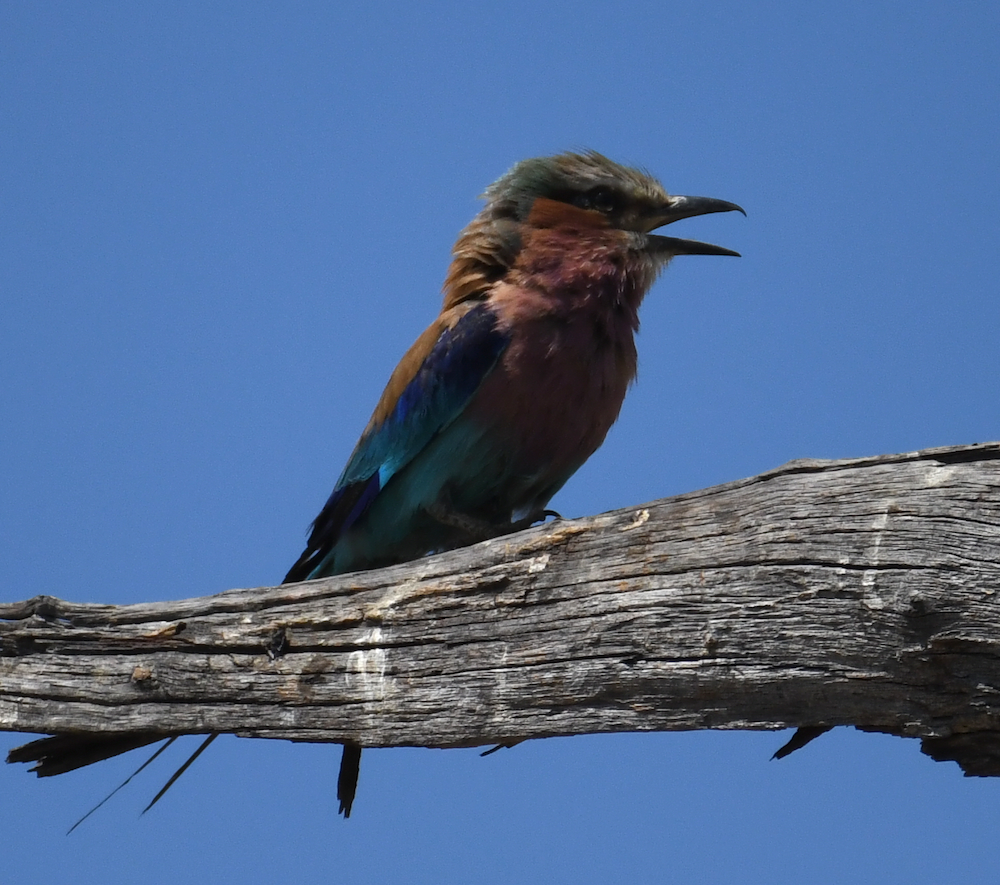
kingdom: Animalia
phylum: Chordata
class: Aves
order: Coraciiformes
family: Coraciidae
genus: Coracias
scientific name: Coracias caudatus
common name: Lilac-breasted roller
